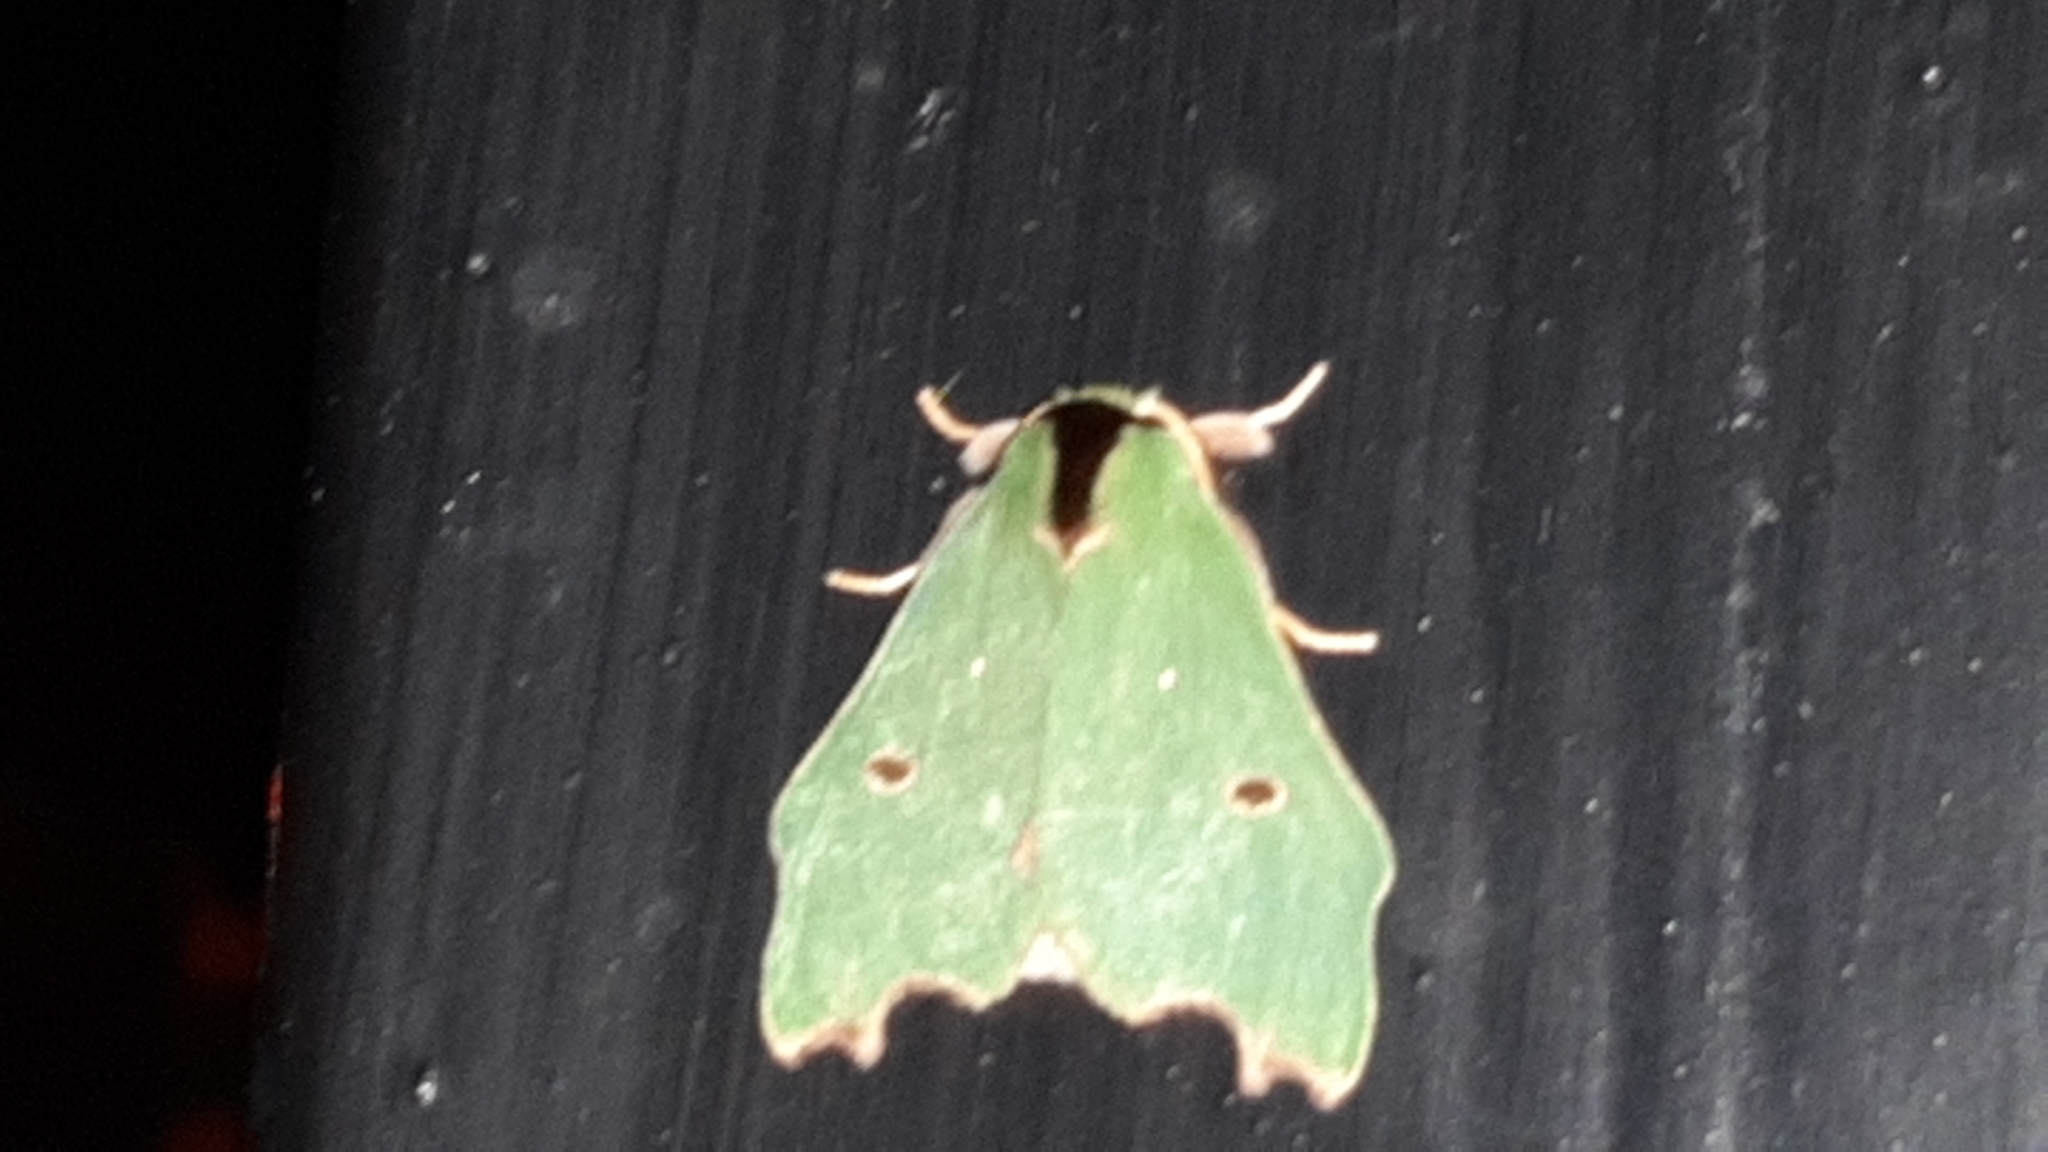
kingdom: Animalia
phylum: Arthropoda
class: Insecta
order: Lepidoptera
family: Notodontidae
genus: Rosema
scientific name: Rosema deolis
